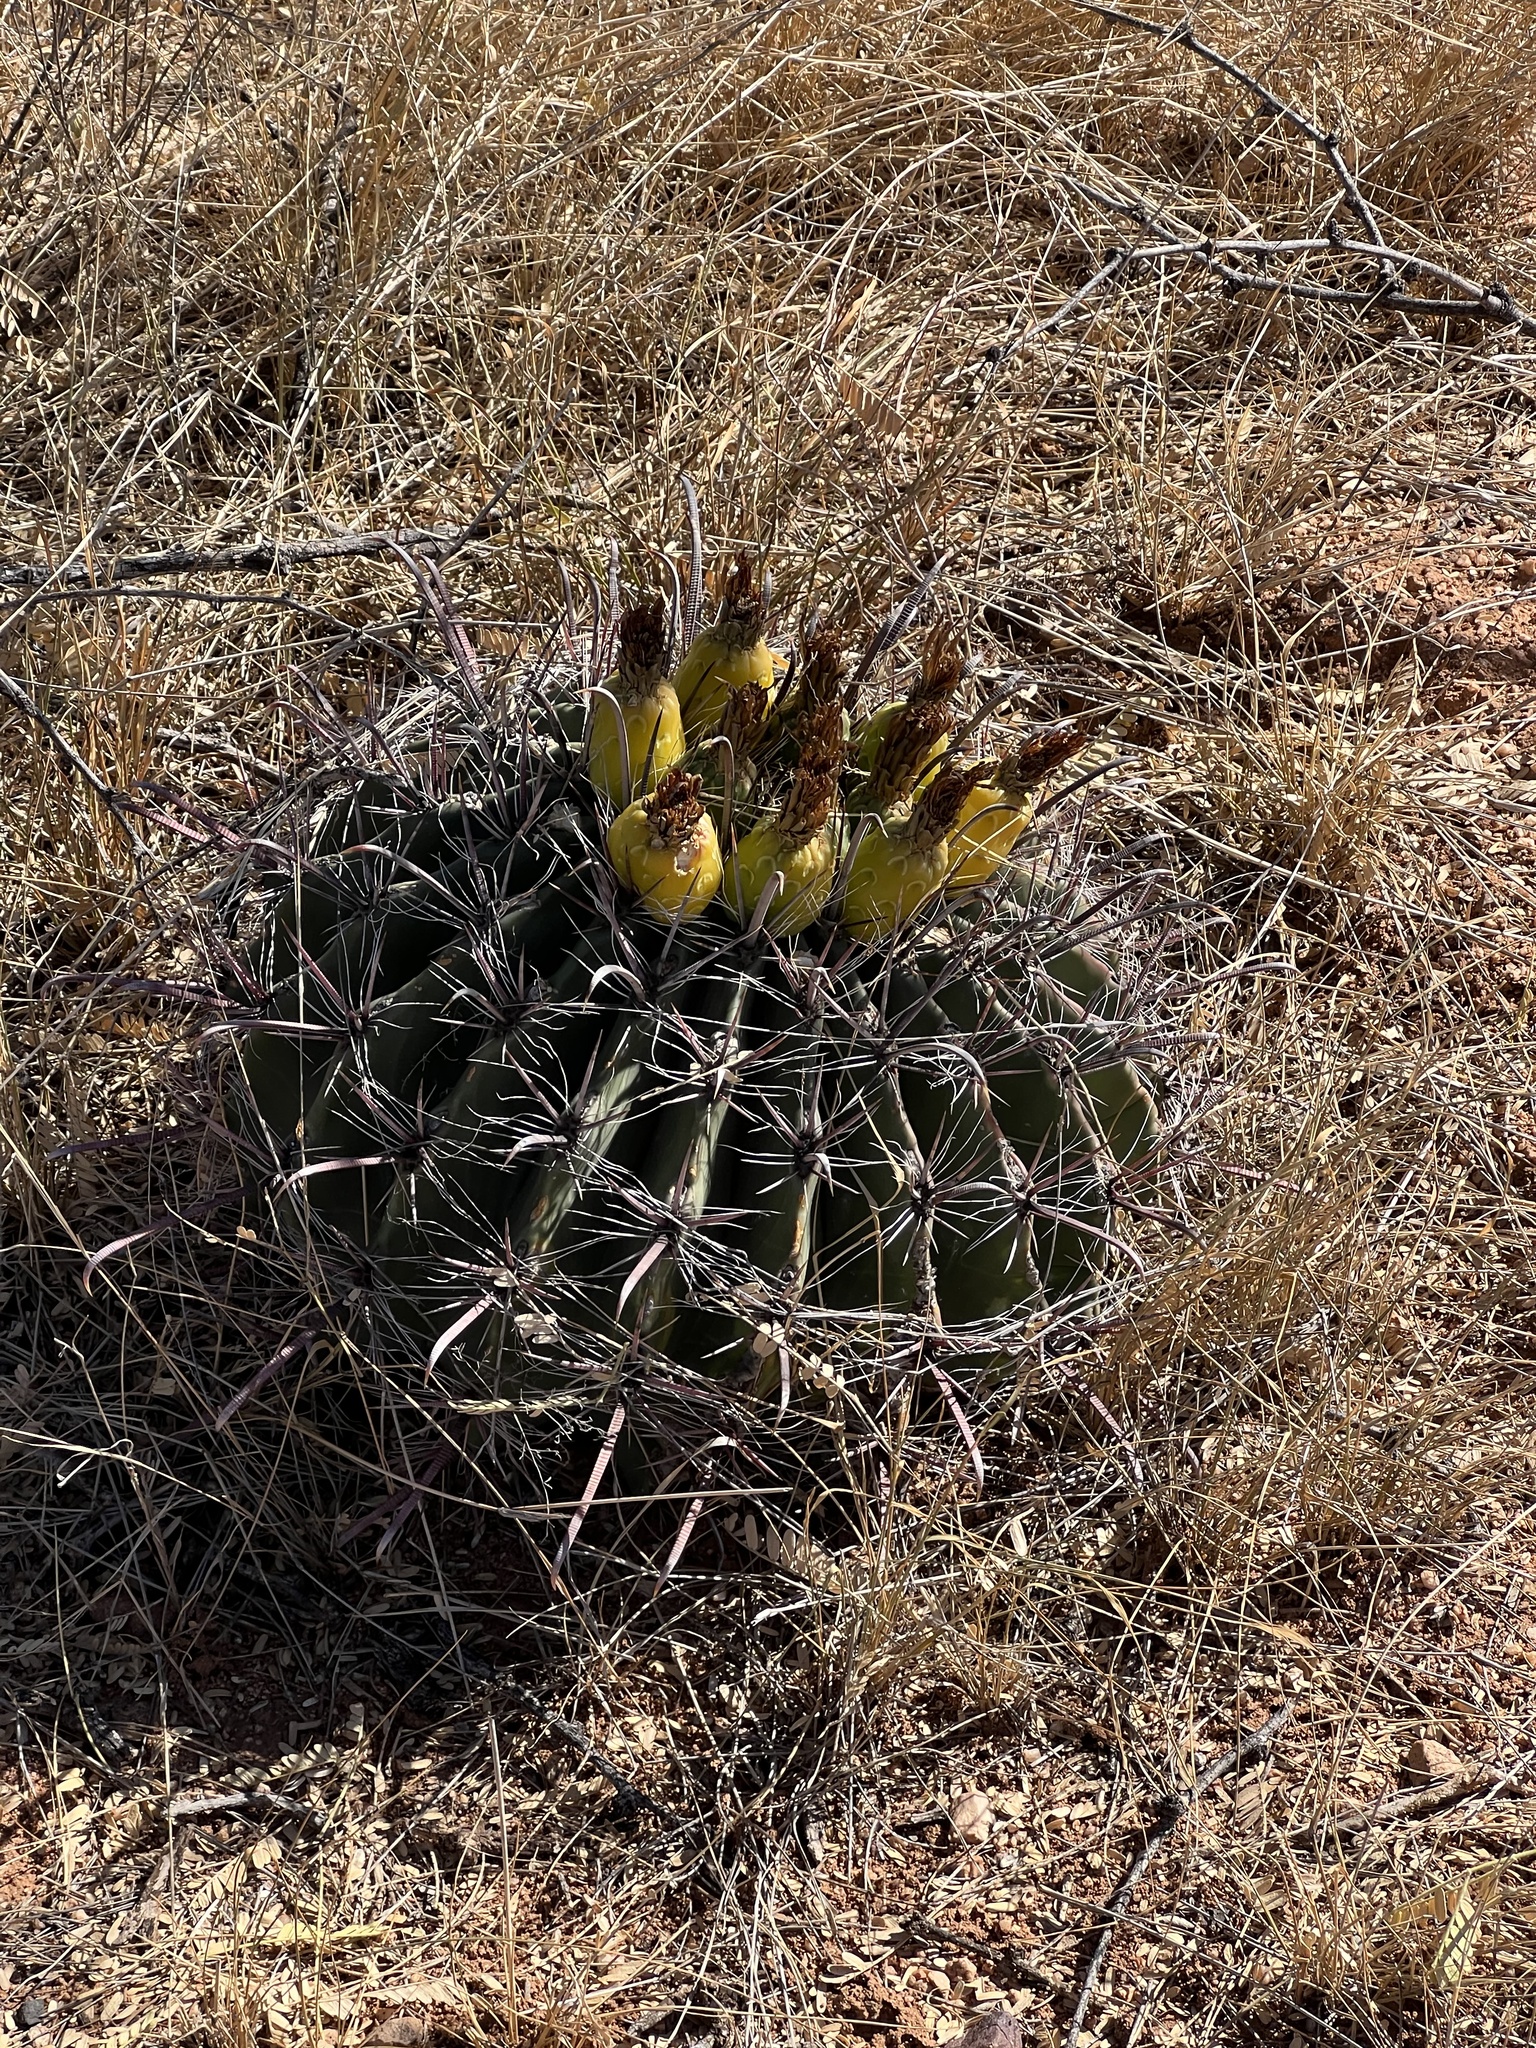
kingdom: Plantae
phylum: Tracheophyta
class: Magnoliopsida
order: Caryophyllales
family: Cactaceae
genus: Ferocactus
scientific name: Ferocactus wislizeni
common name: Candy barrel cactus
